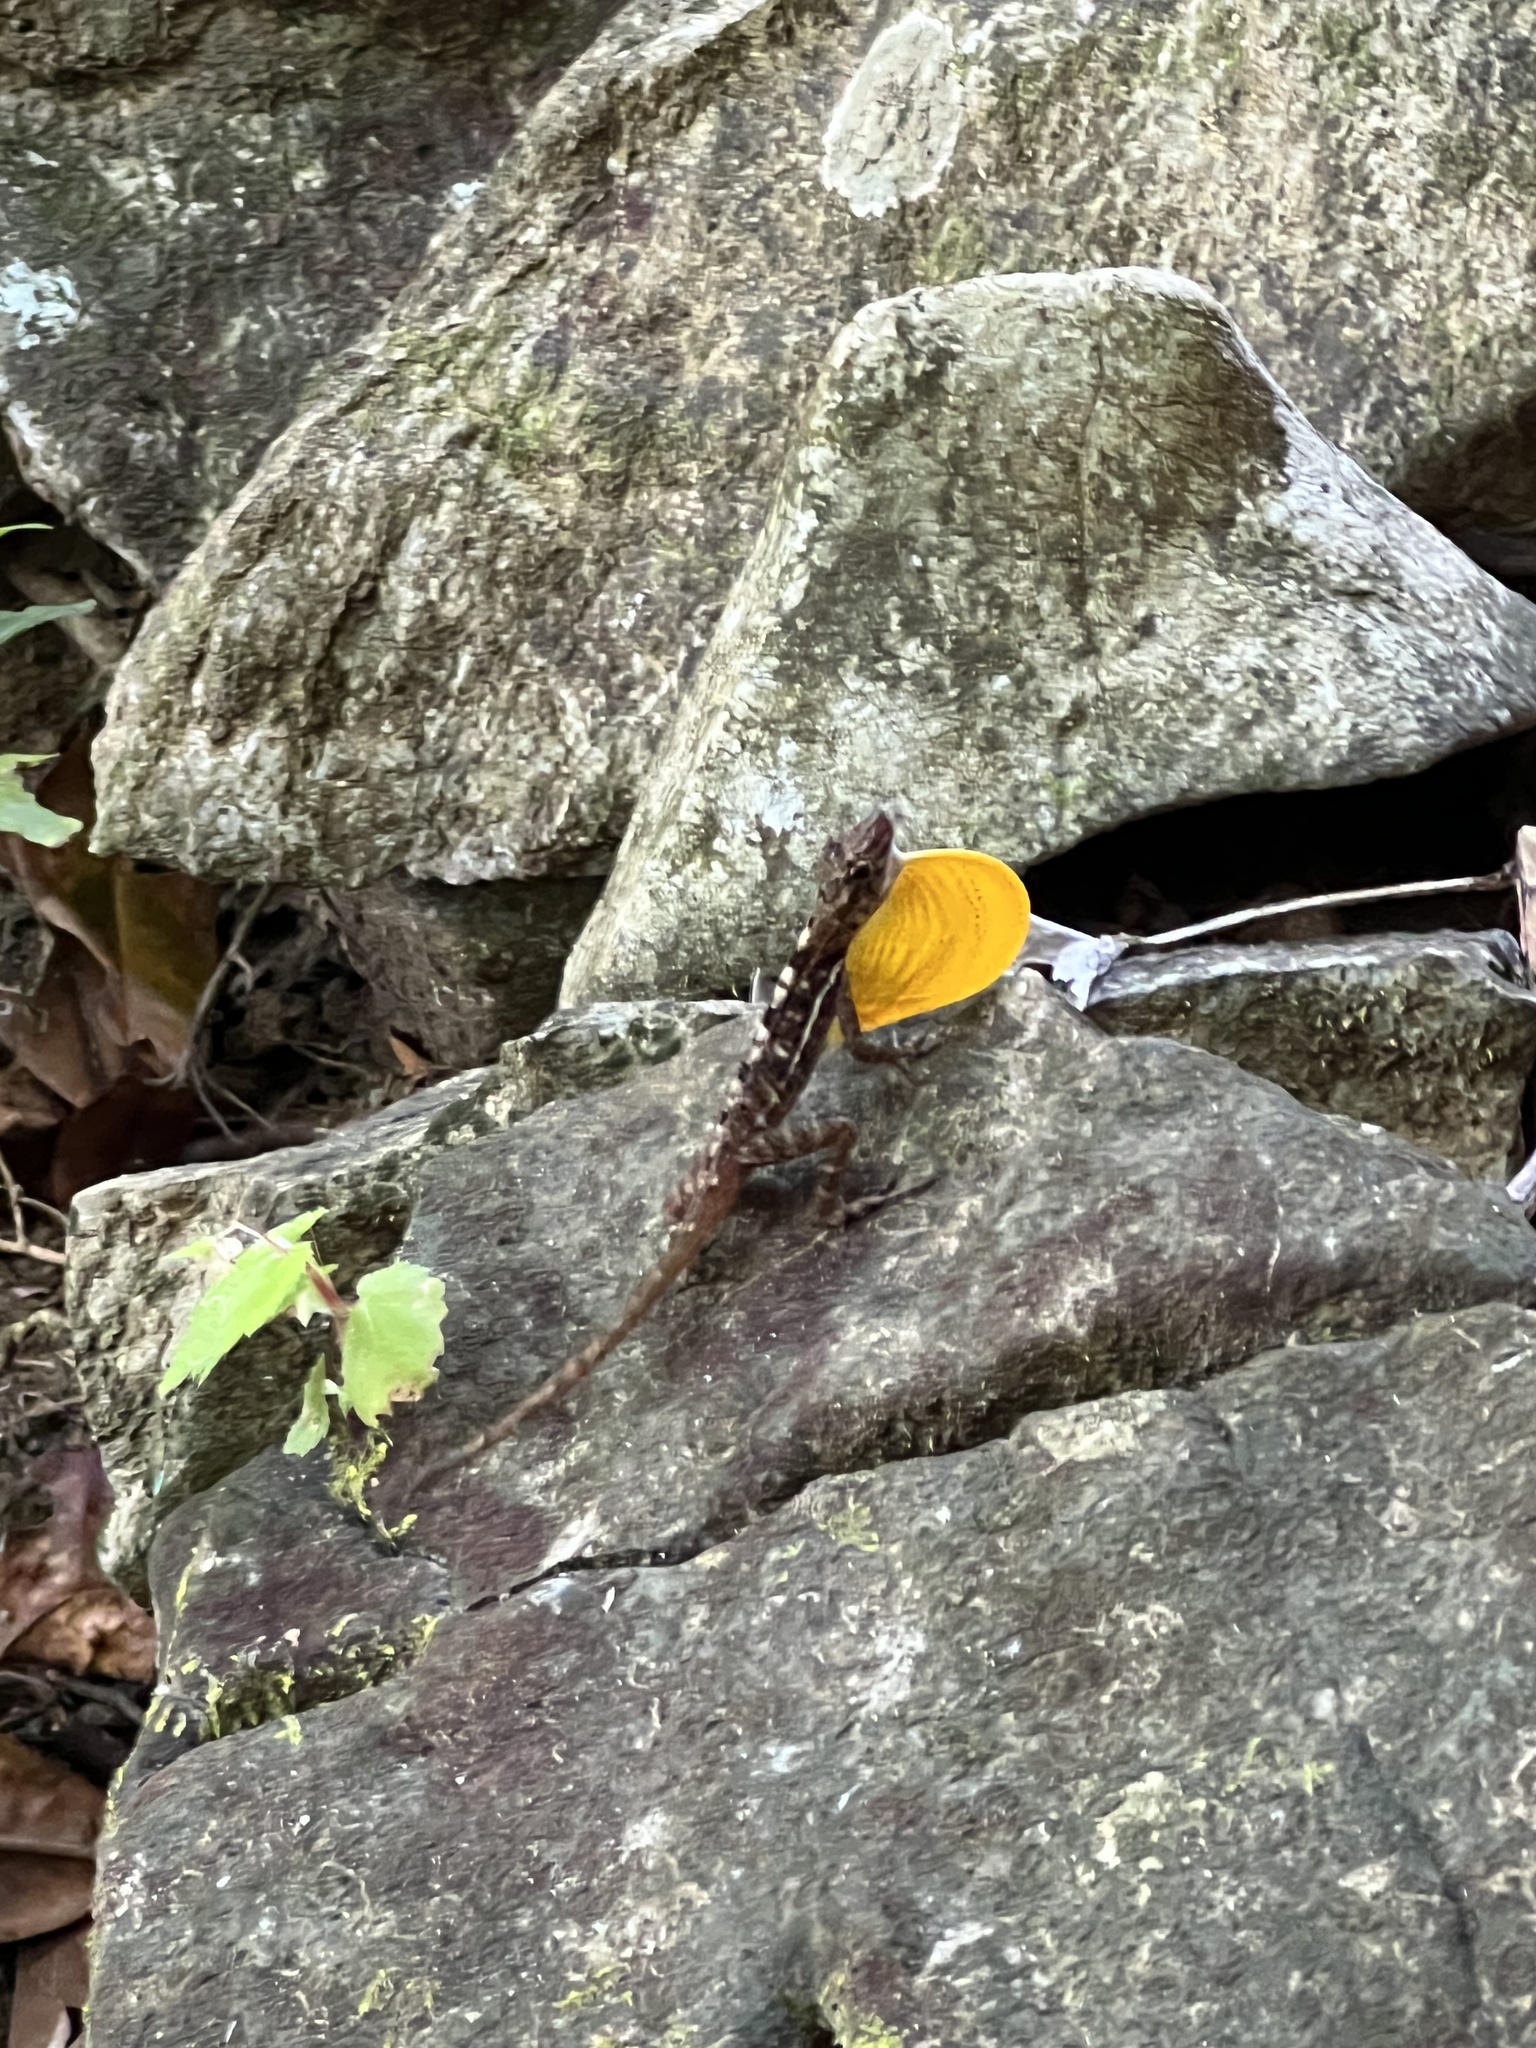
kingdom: Animalia
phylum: Chordata
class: Squamata
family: Dactyloidae
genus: Anolis
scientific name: Anolis osa
